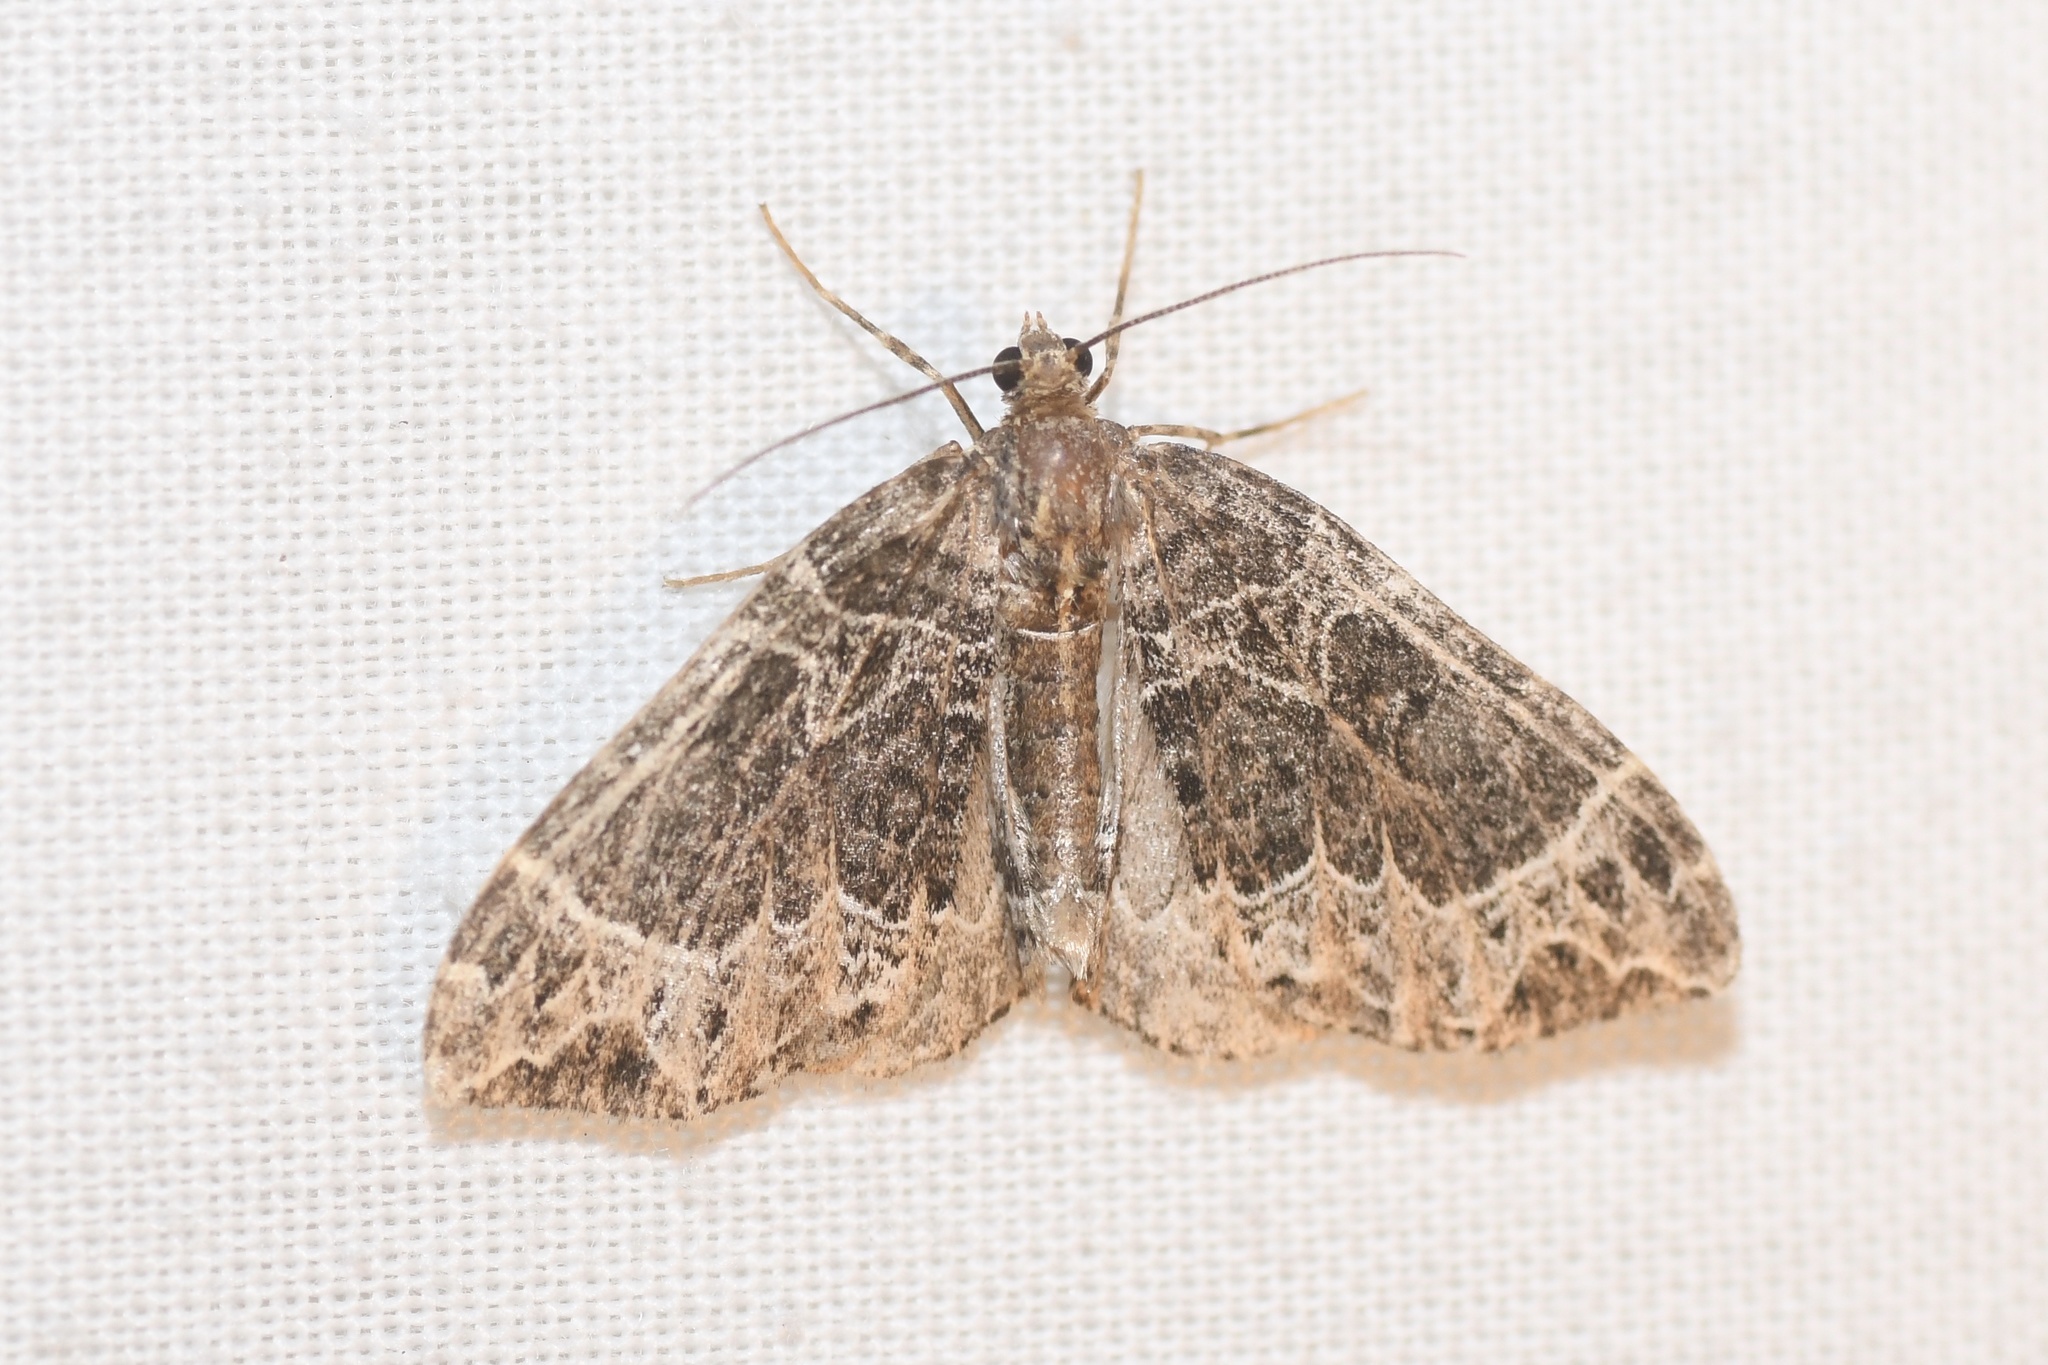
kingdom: Animalia
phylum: Arthropoda
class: Insecta
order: Lepidoptera
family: Geometridae
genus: Ecliptopera
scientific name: Ecliptopera silaceata
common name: Small phoenix
